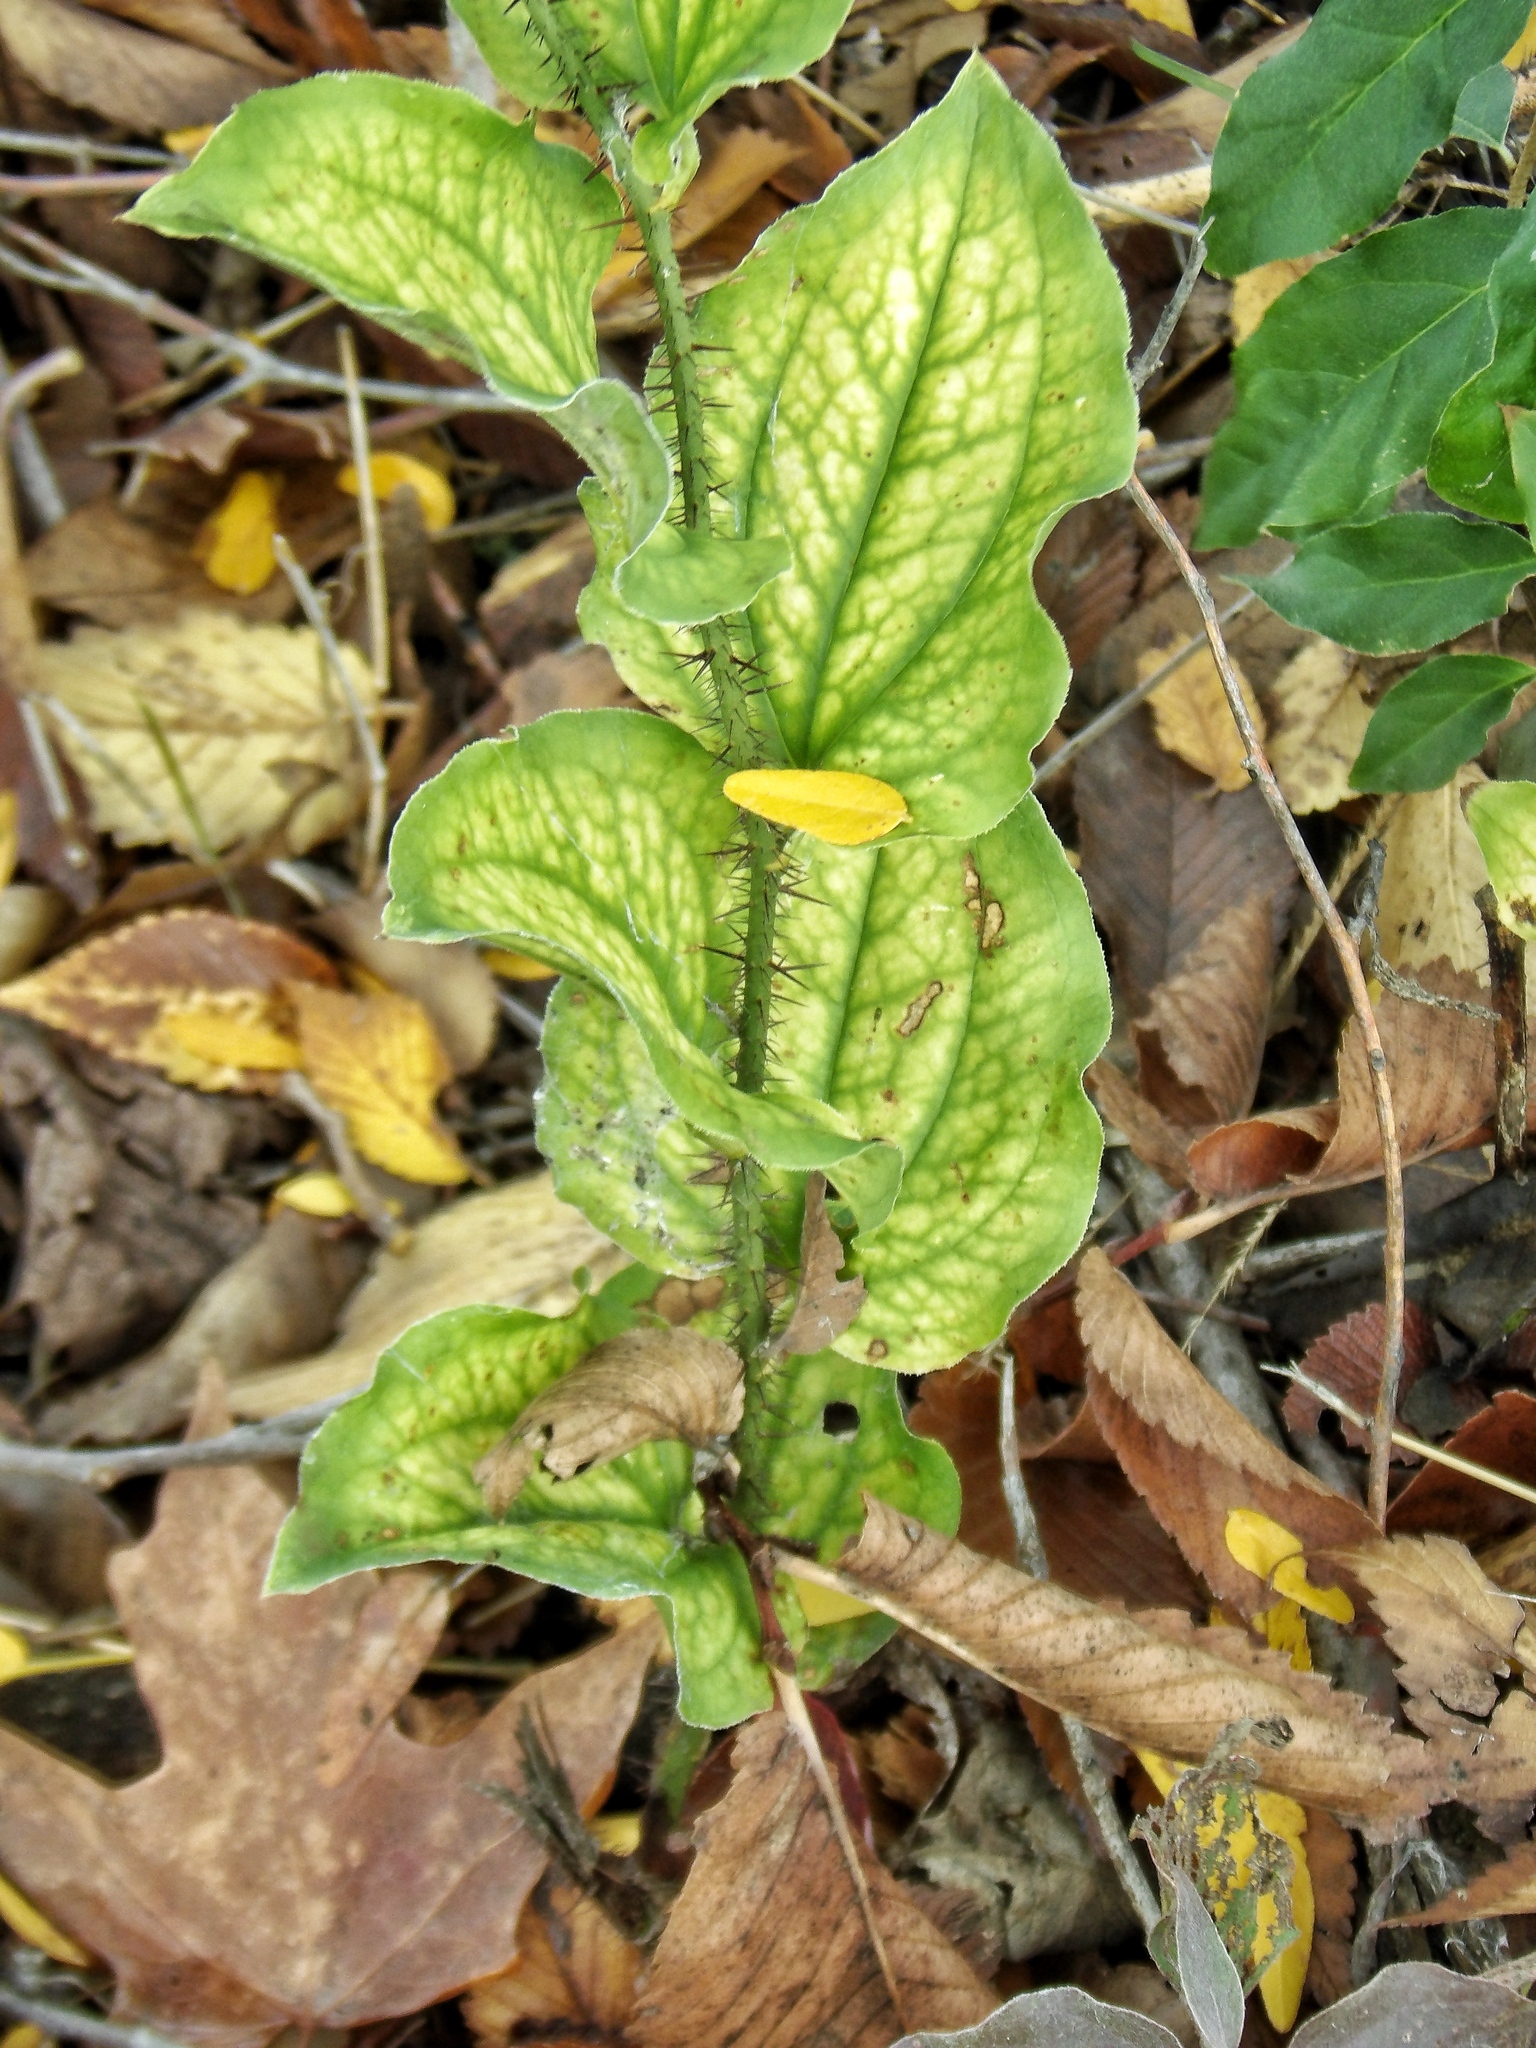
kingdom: Plantae
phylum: Tracheophyta
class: Liliopsida
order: Liliales
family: Smilacaceae
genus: Smilax
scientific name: Smilax tamnoides
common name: Hellfetter
